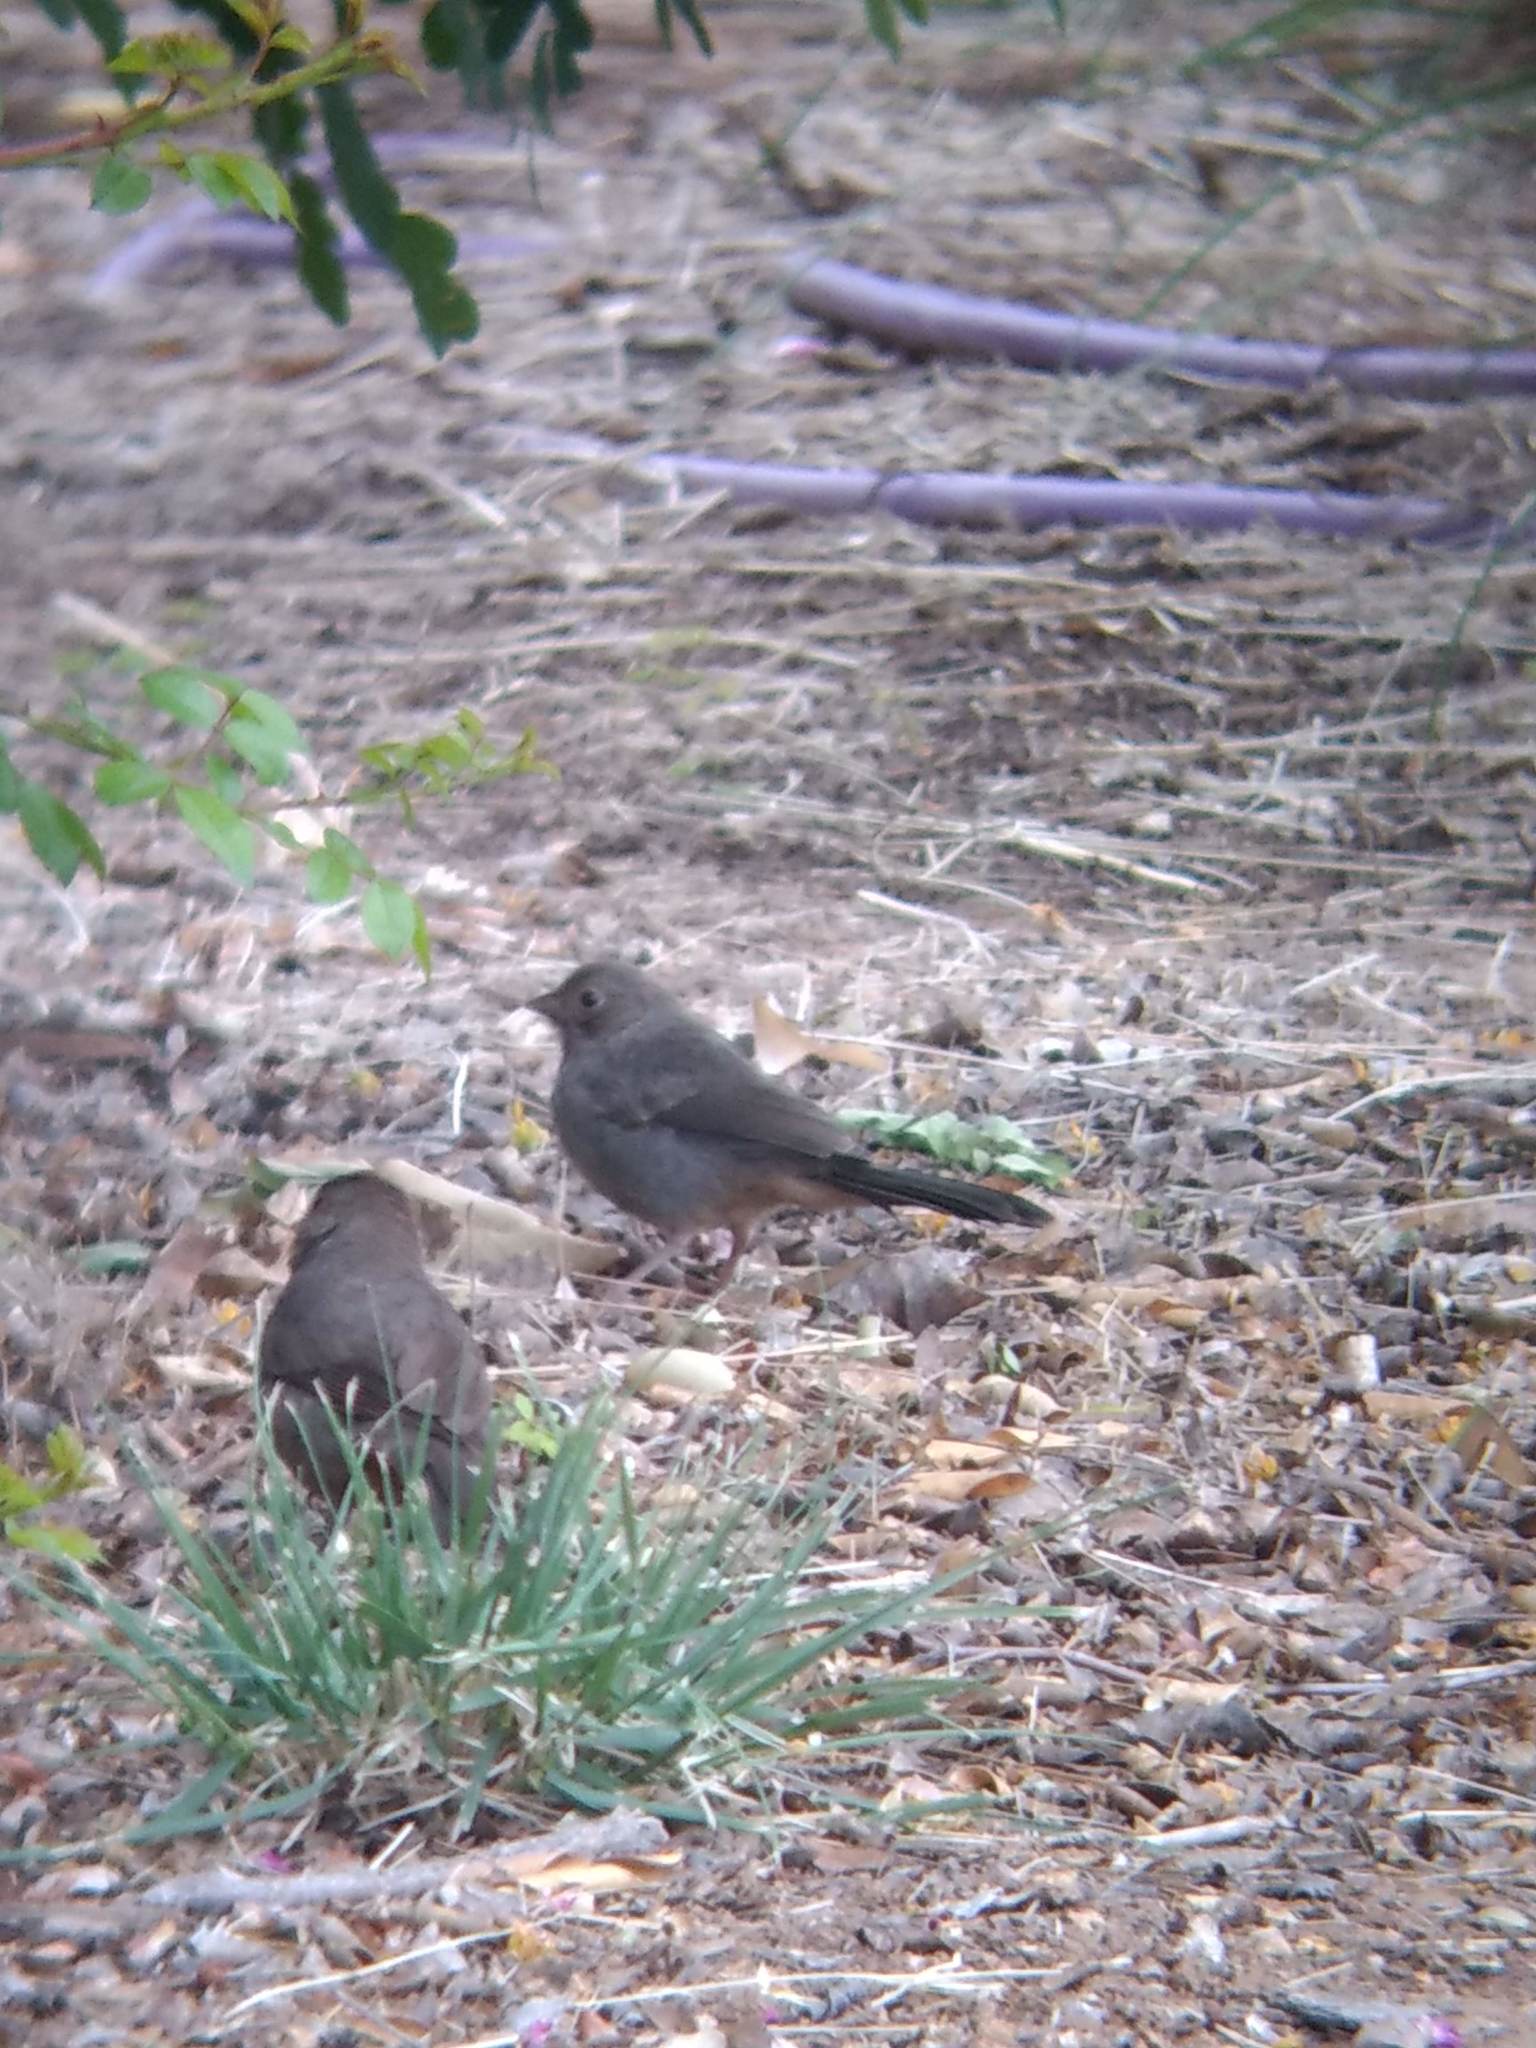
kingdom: Animalia
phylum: Chordata
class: Aves
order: Passeriformes
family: Passerellidae
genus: Melozone
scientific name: Melozone crissalis
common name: California towhee
